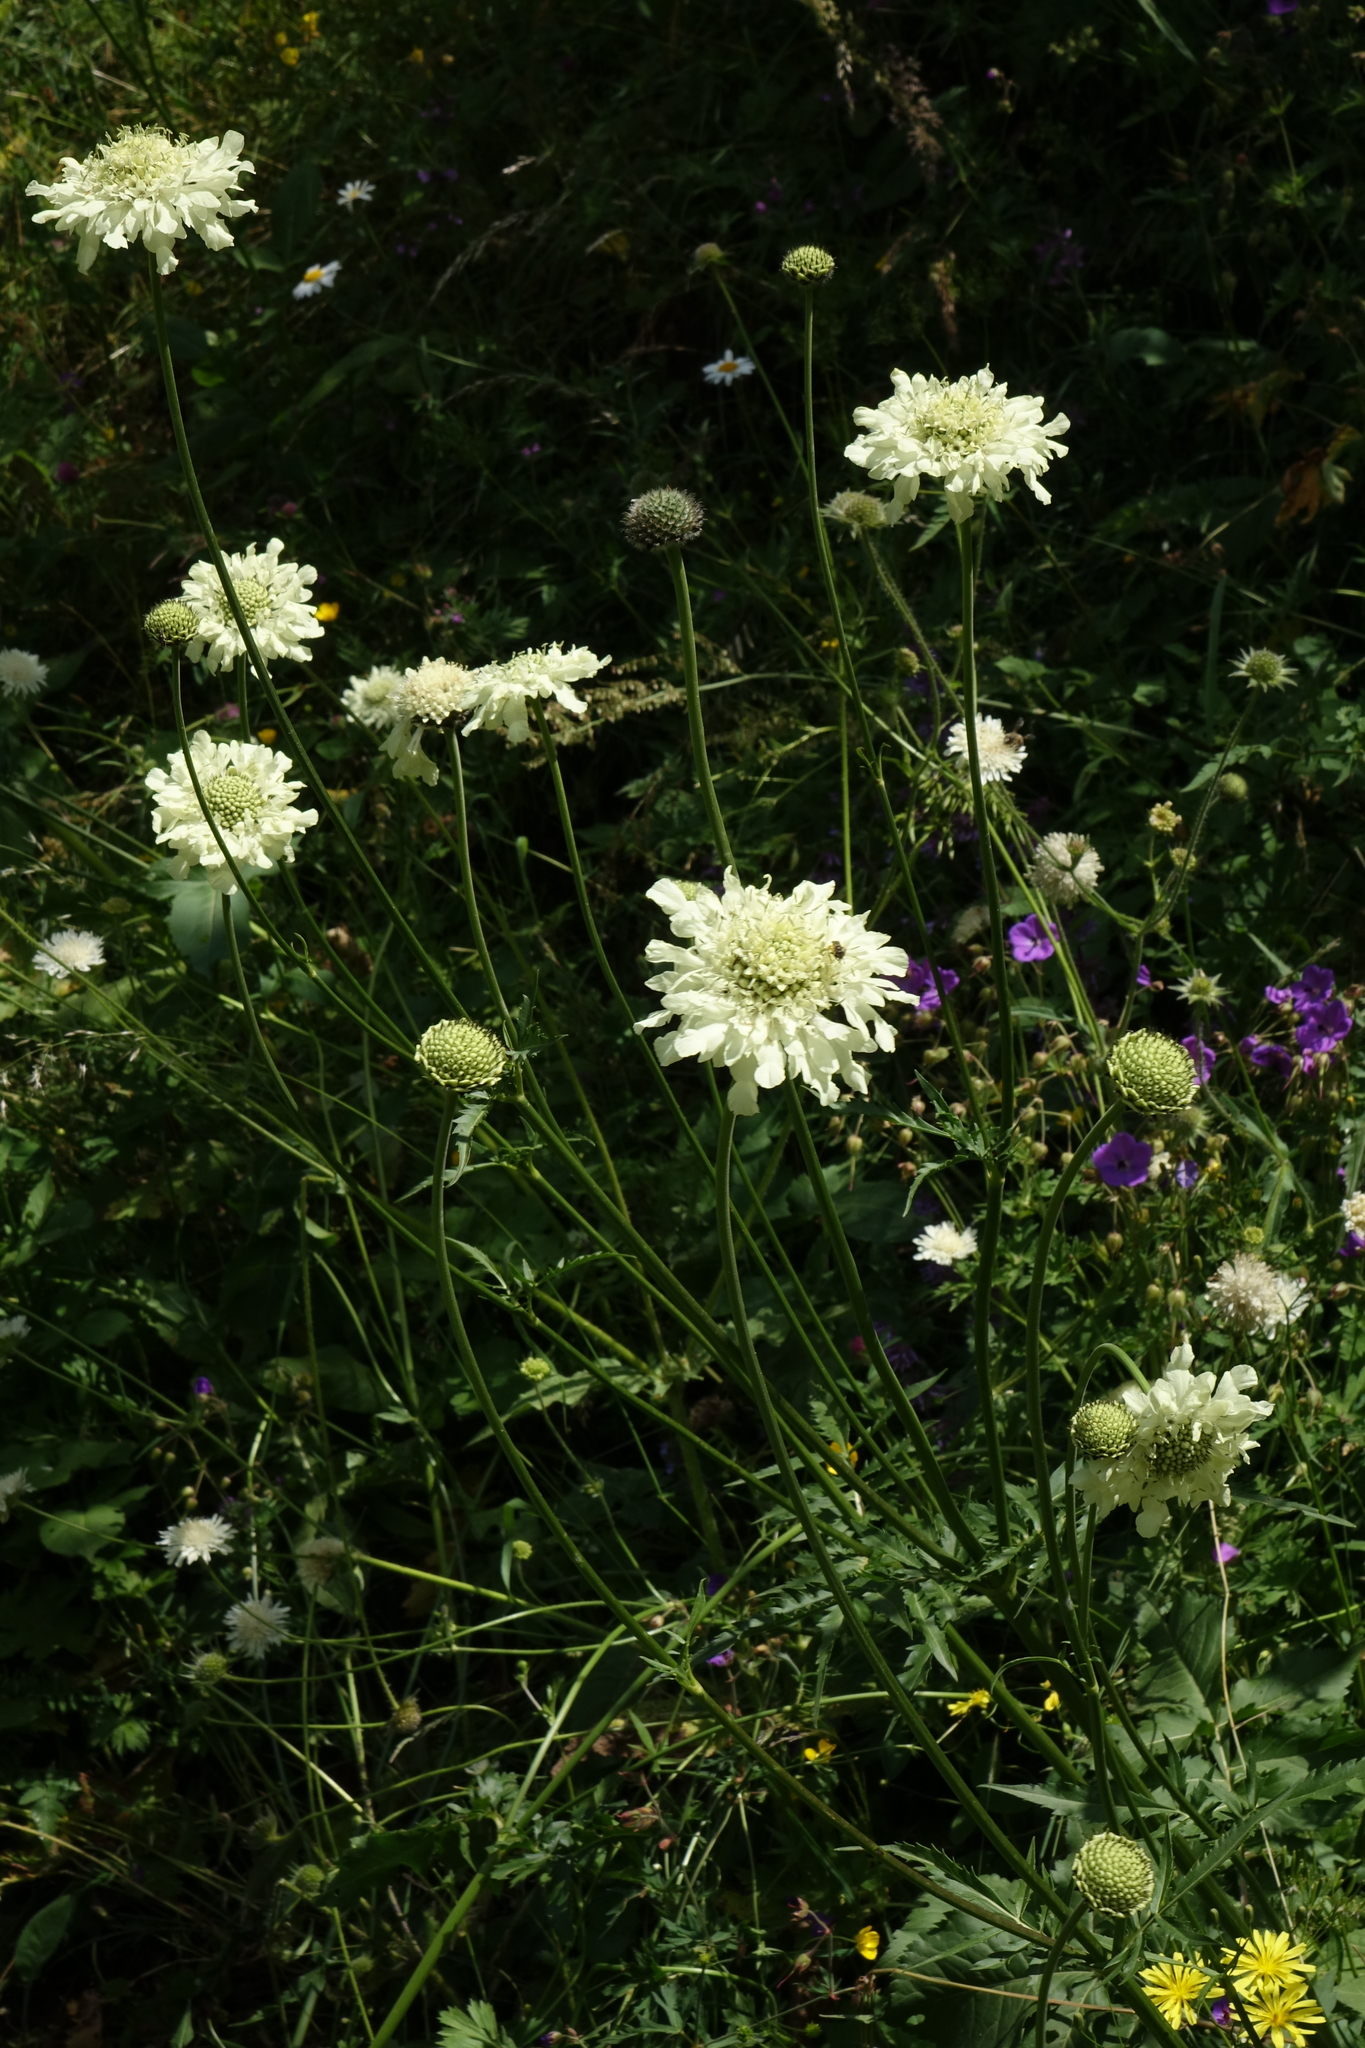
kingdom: Plantae
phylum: Tracheophyta
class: Magnoliopsida
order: Dipsacales
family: Caprifoliaceae
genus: Cephalaria
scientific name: Cephalaria gigantea
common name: Tatarian cephalaria
